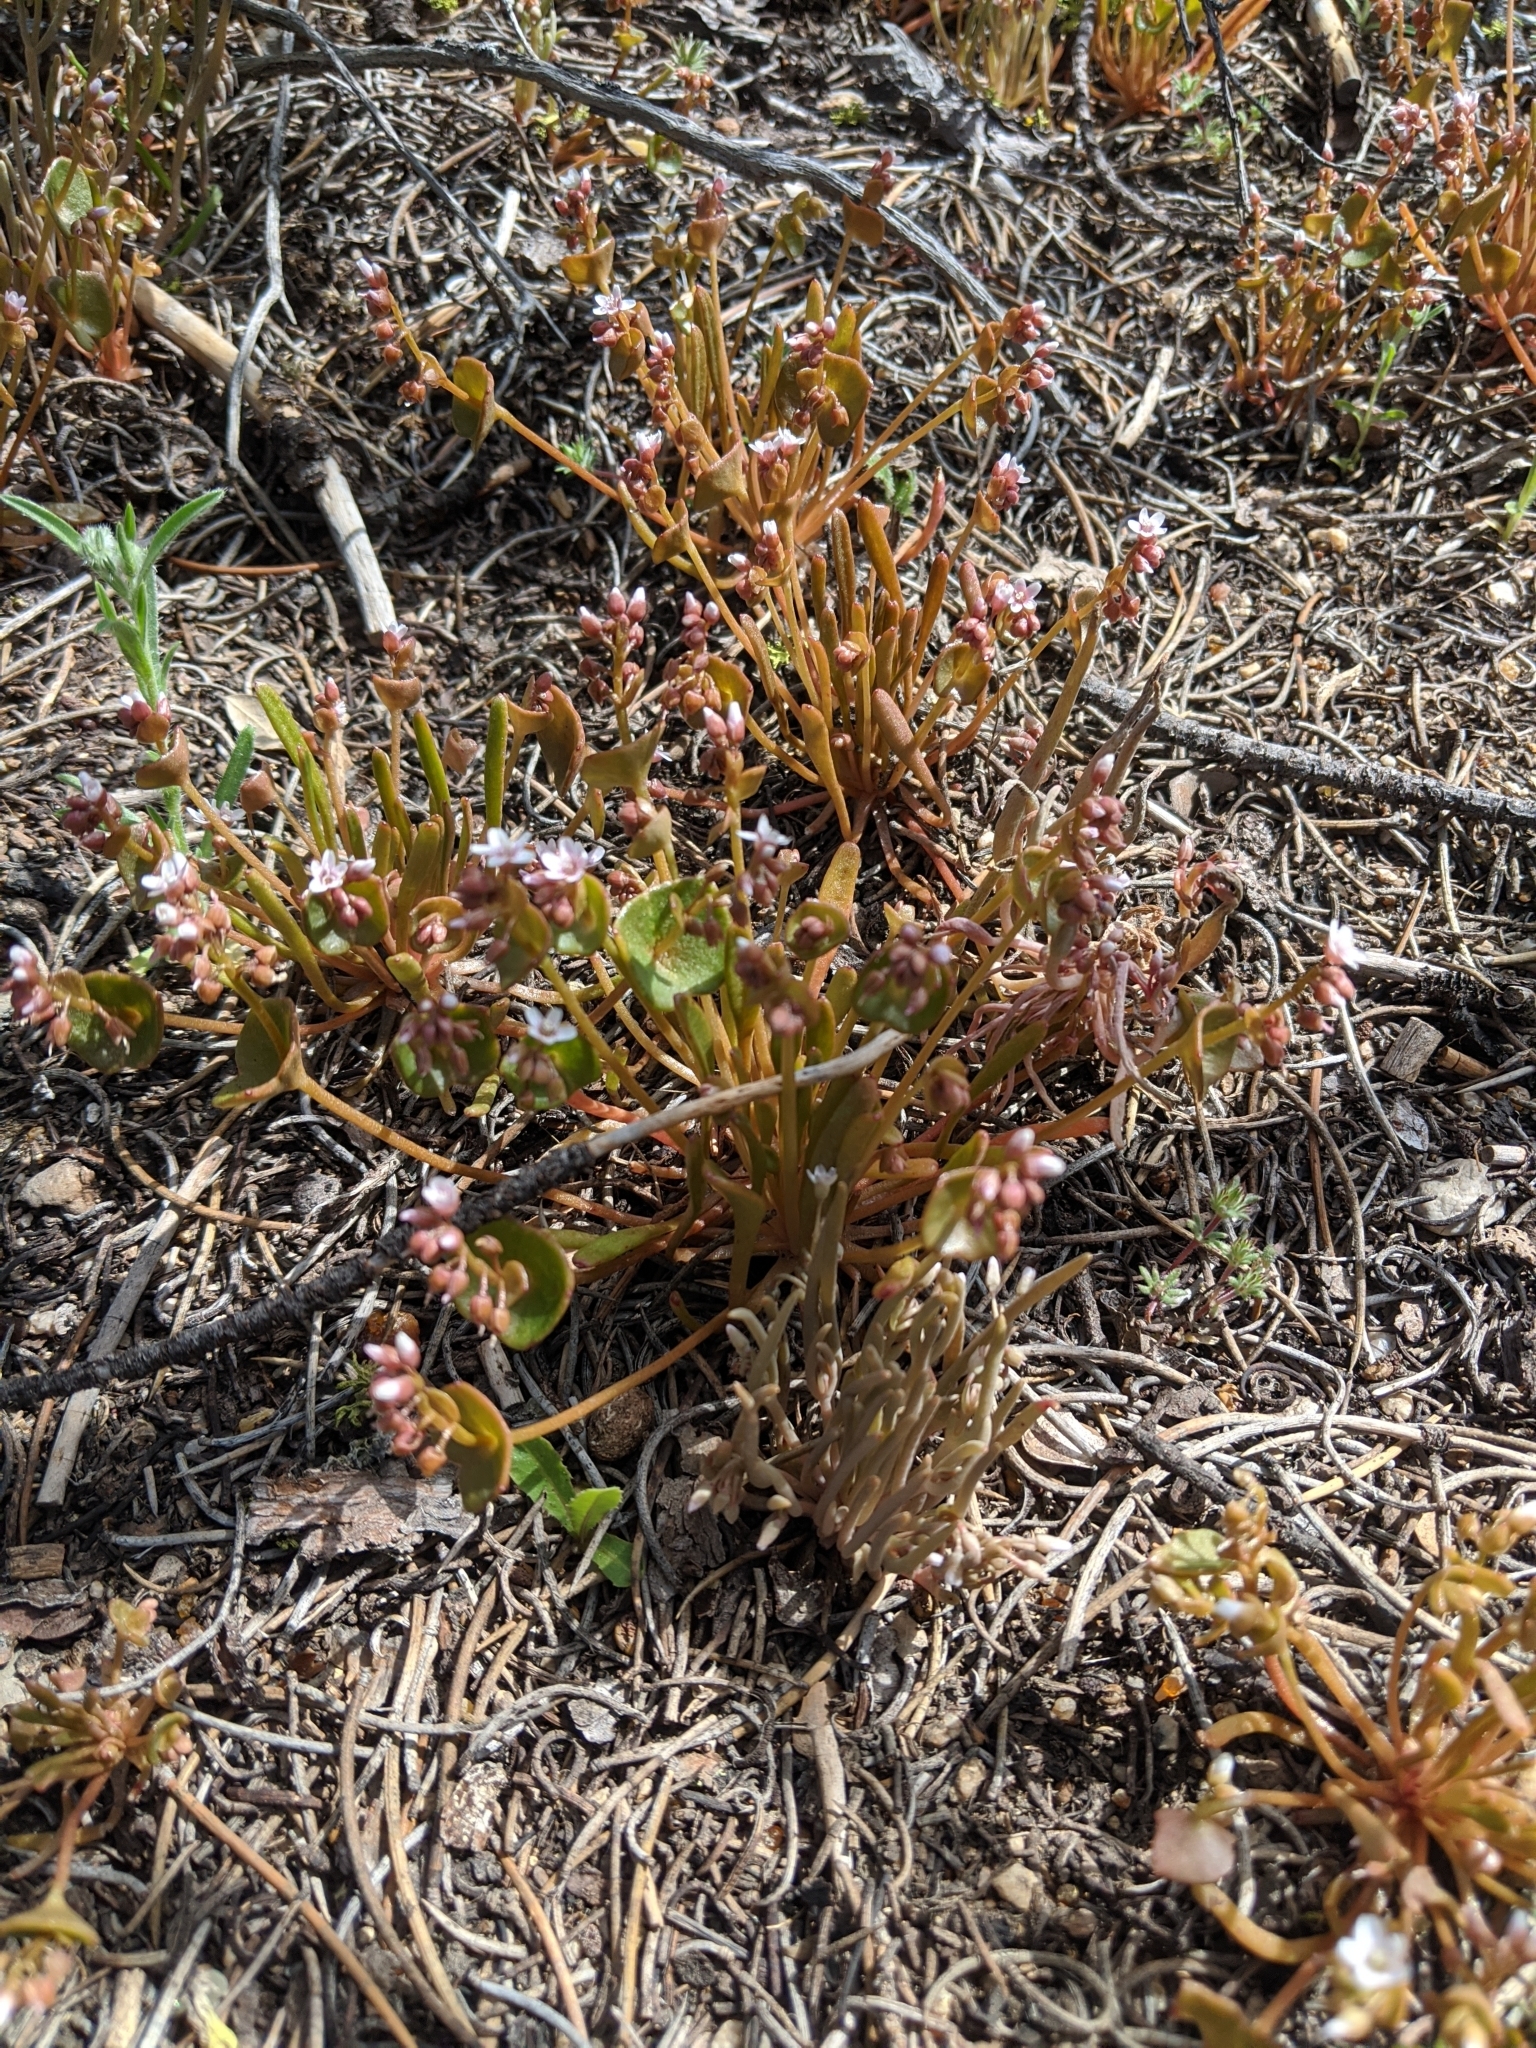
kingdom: Plantae
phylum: Tracheophyta
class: Magnoliopsida
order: Caryophyllales
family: Montiaceae
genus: Claytonia
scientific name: Claytonia exigua
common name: Pale spring beauty
